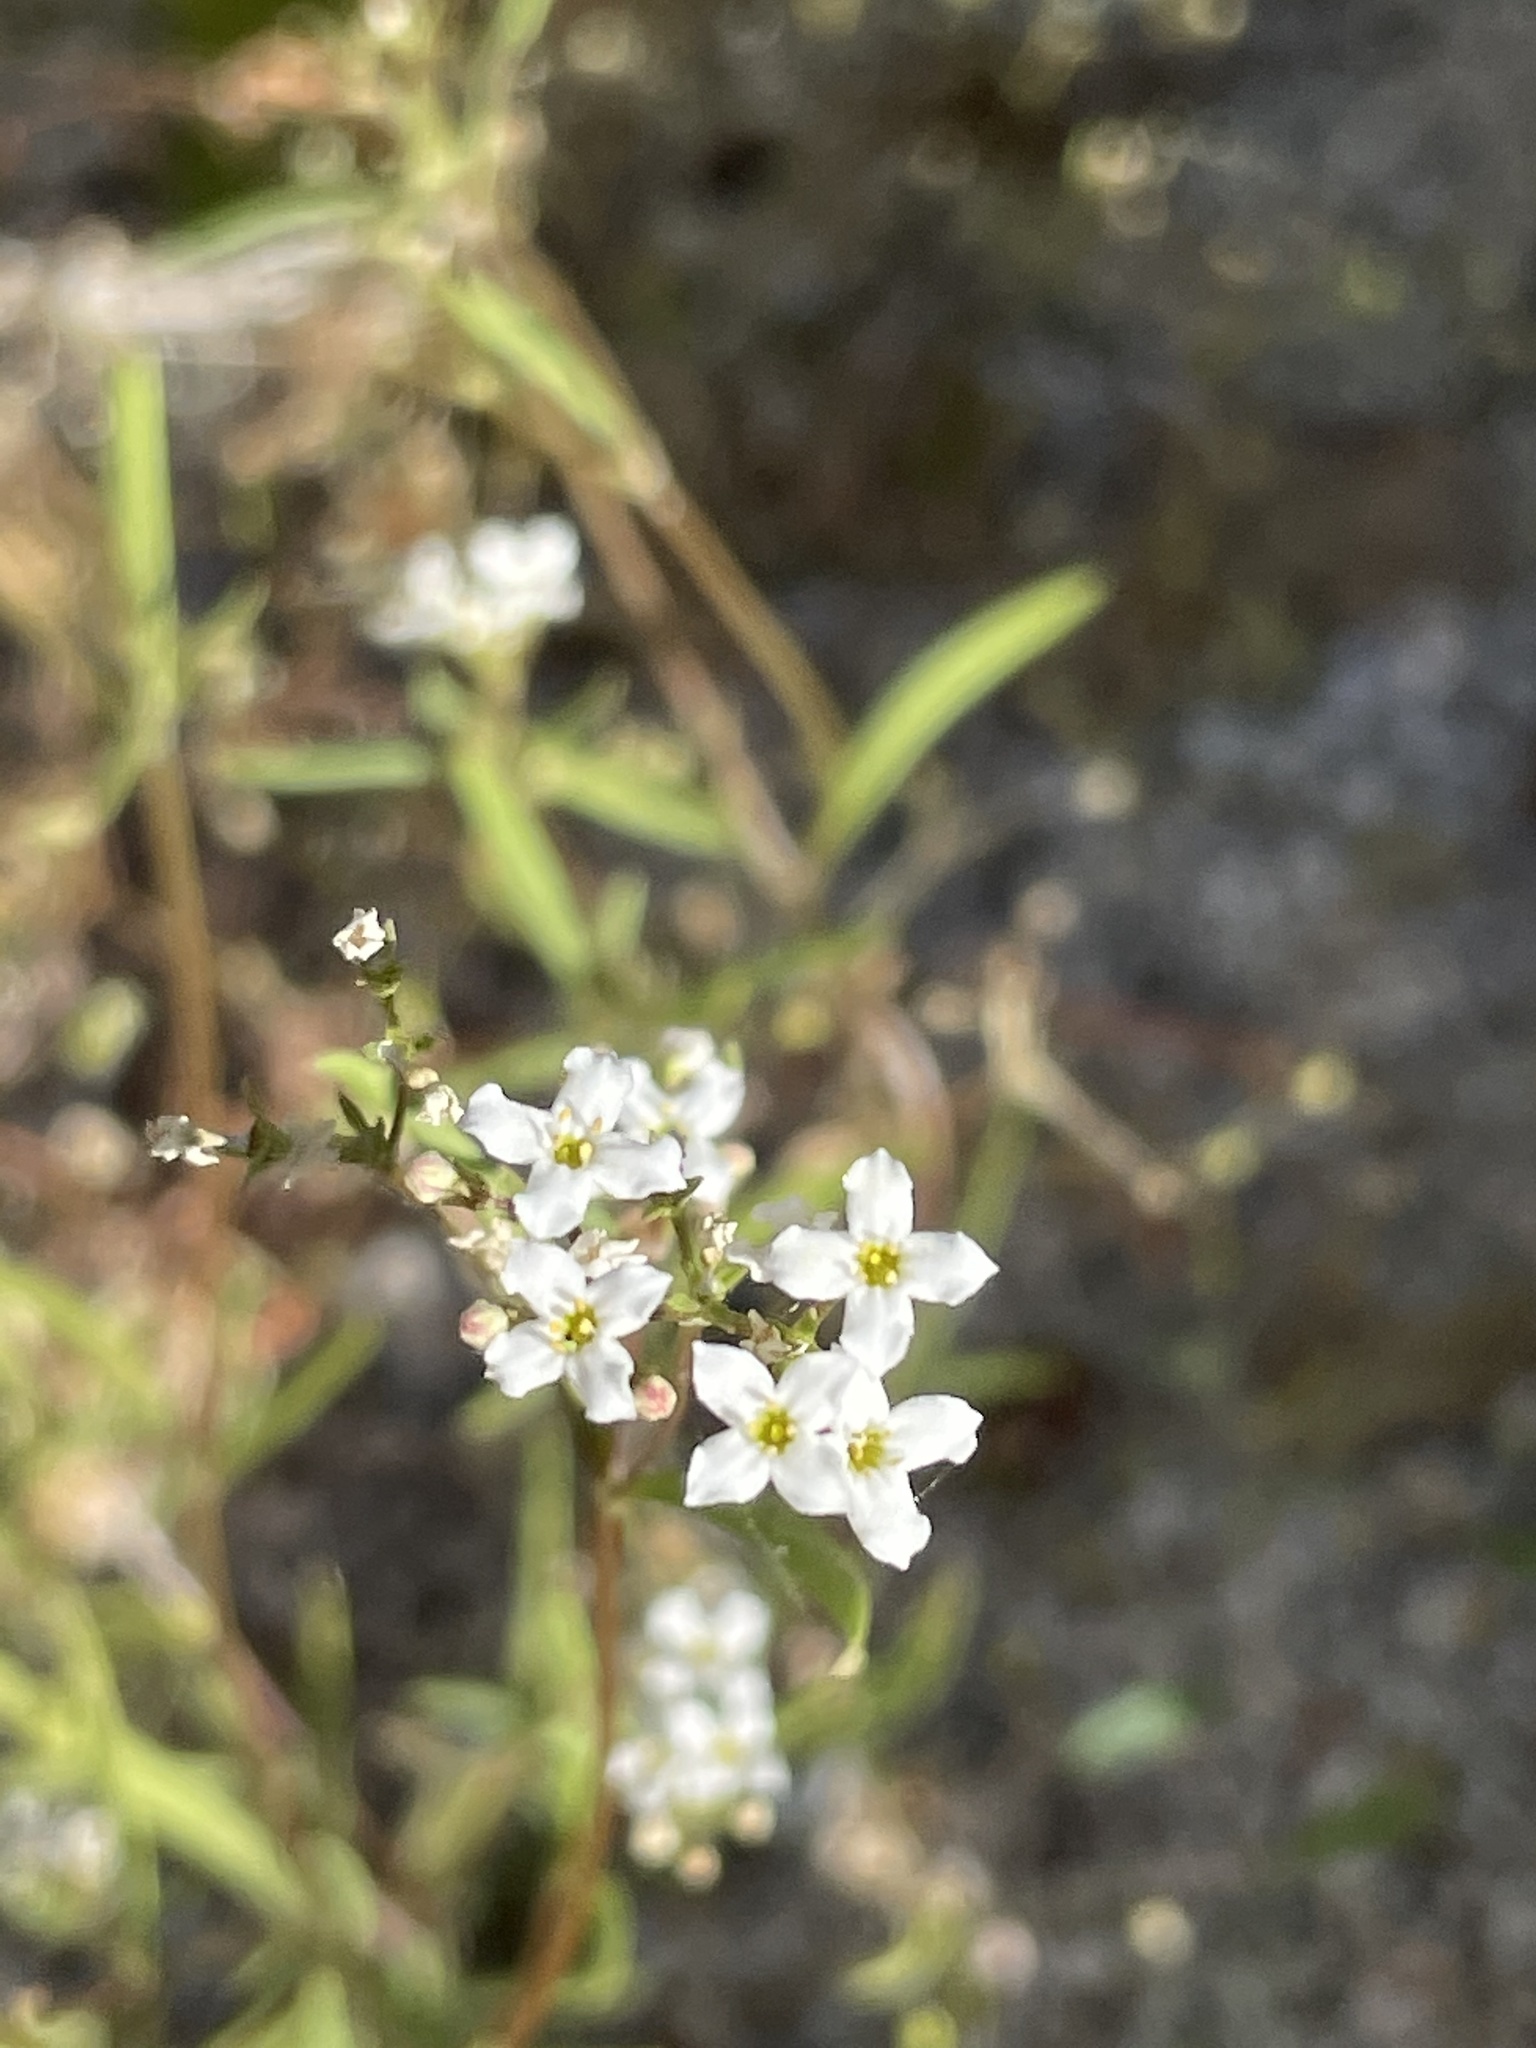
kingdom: Plantae
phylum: Tracheophyta
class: Magnoliopsida
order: Gentianales
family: Rubiaceae
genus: Stenotis
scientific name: Stenotis arenaria
